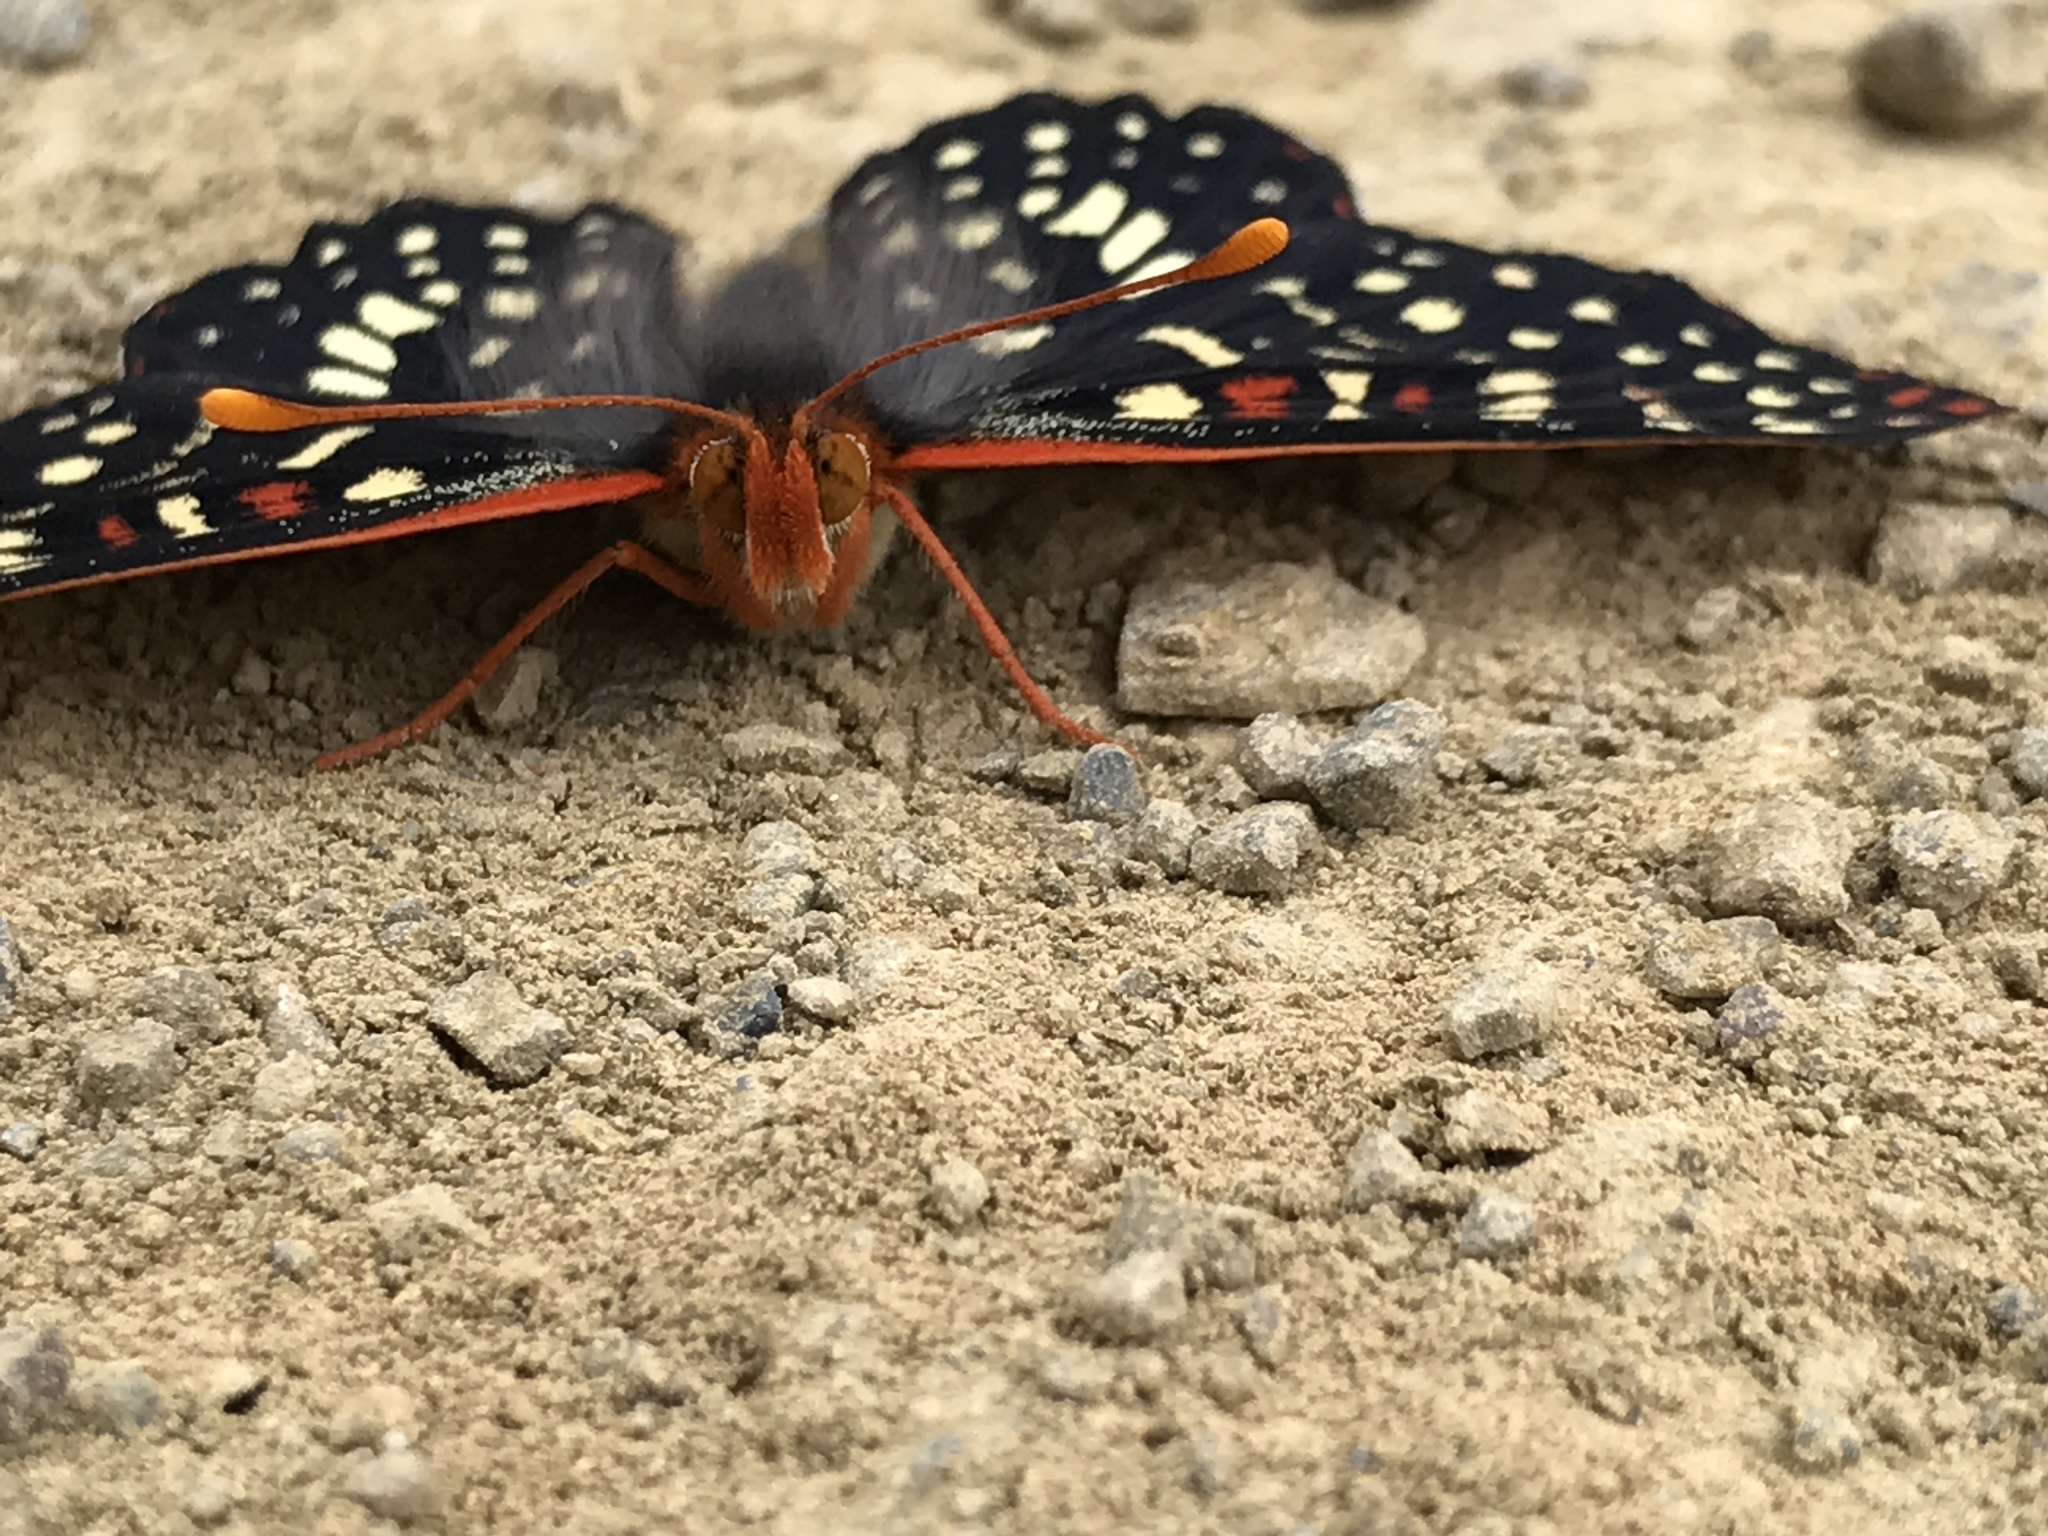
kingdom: Animalia
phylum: Arthropoda
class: Insecta
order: Lepidoptera
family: Nymphalidae
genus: Occidryas
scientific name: Occidryas chalcedona
